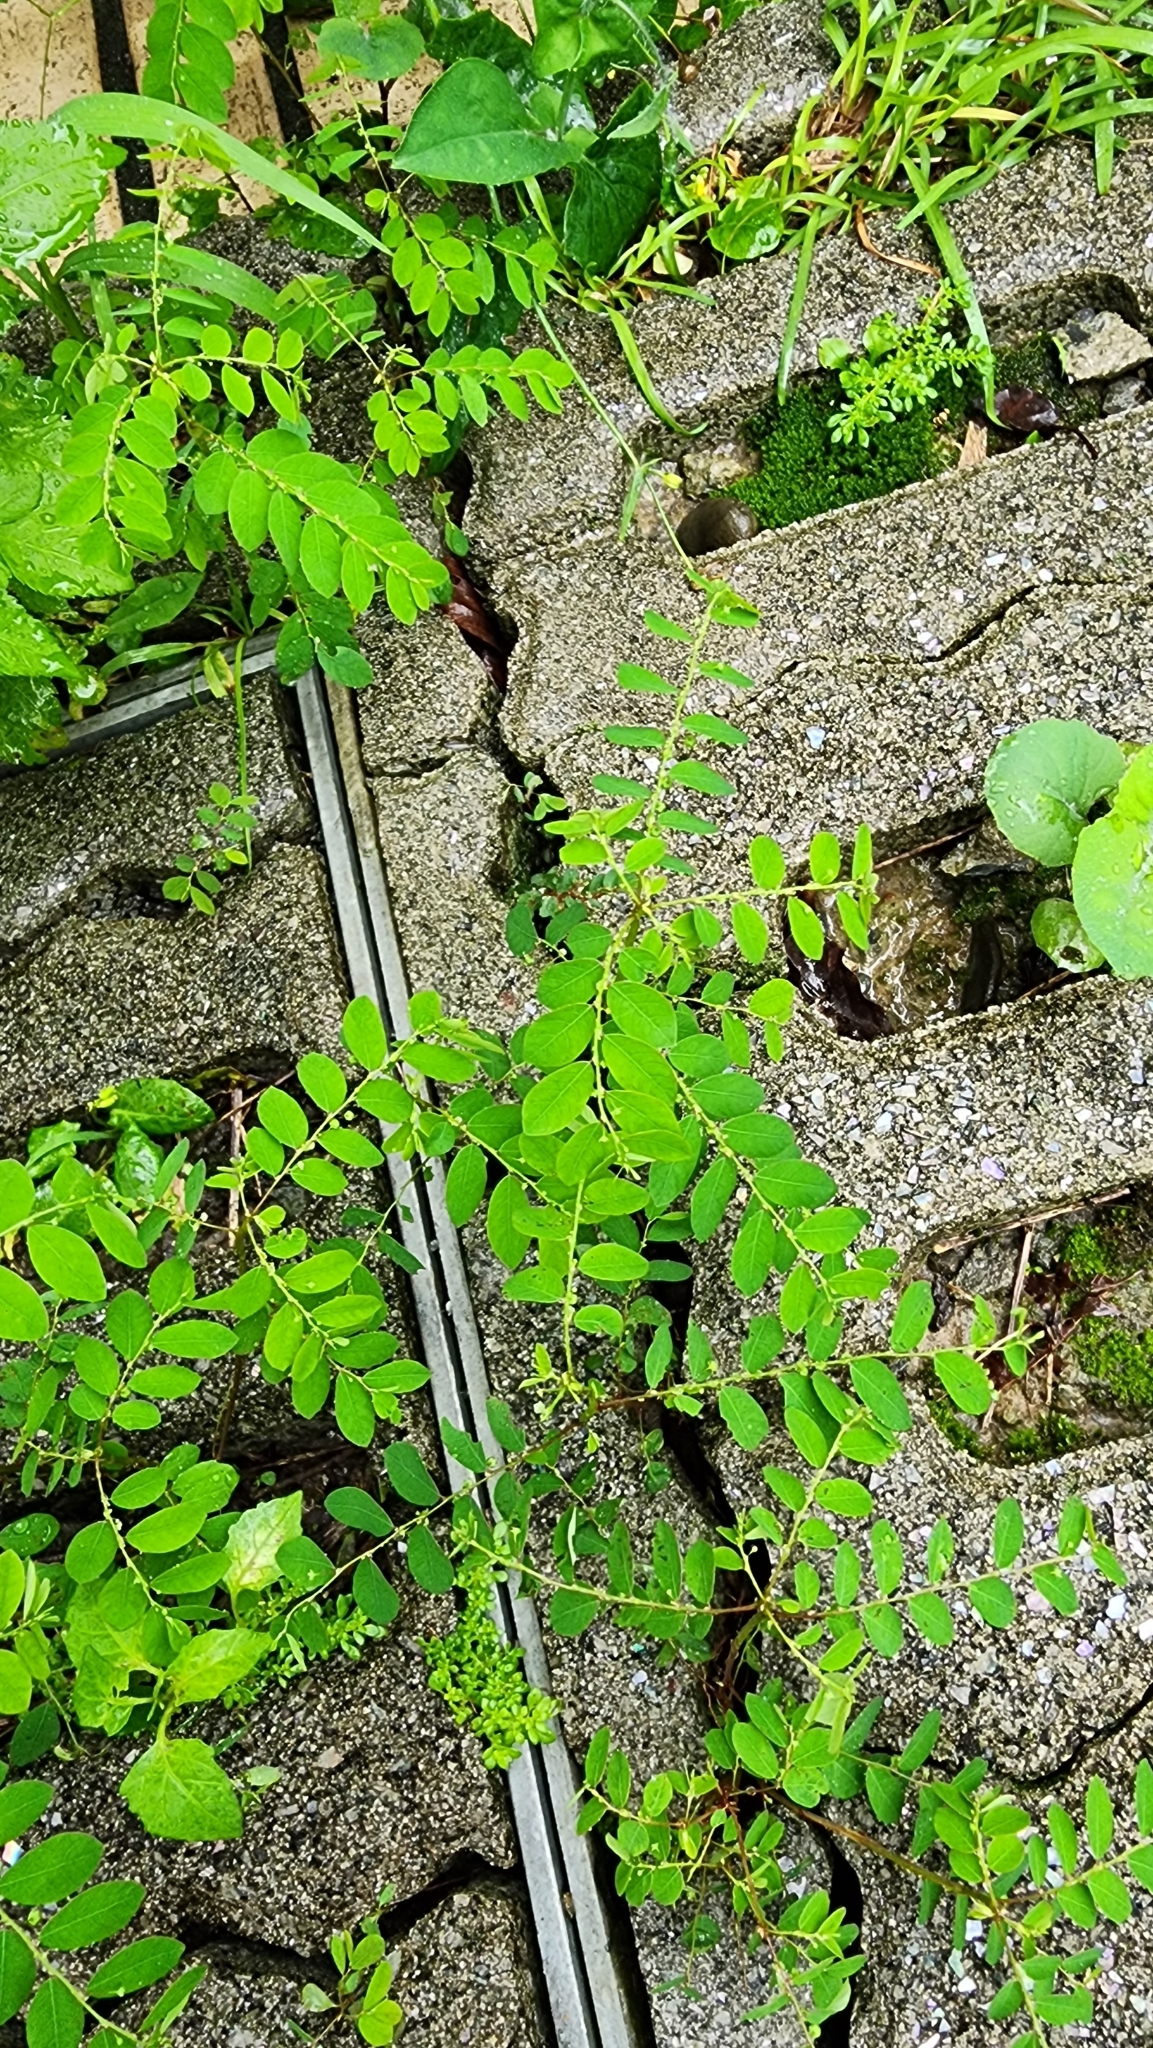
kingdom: Plantae
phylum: Tracheophyta
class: Magnoliopsida
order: Malpighiales
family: Phyllanthaceae
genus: Phyllanthus
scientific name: Phyllanthus tenellus
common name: Mascarene island leaf-flower
